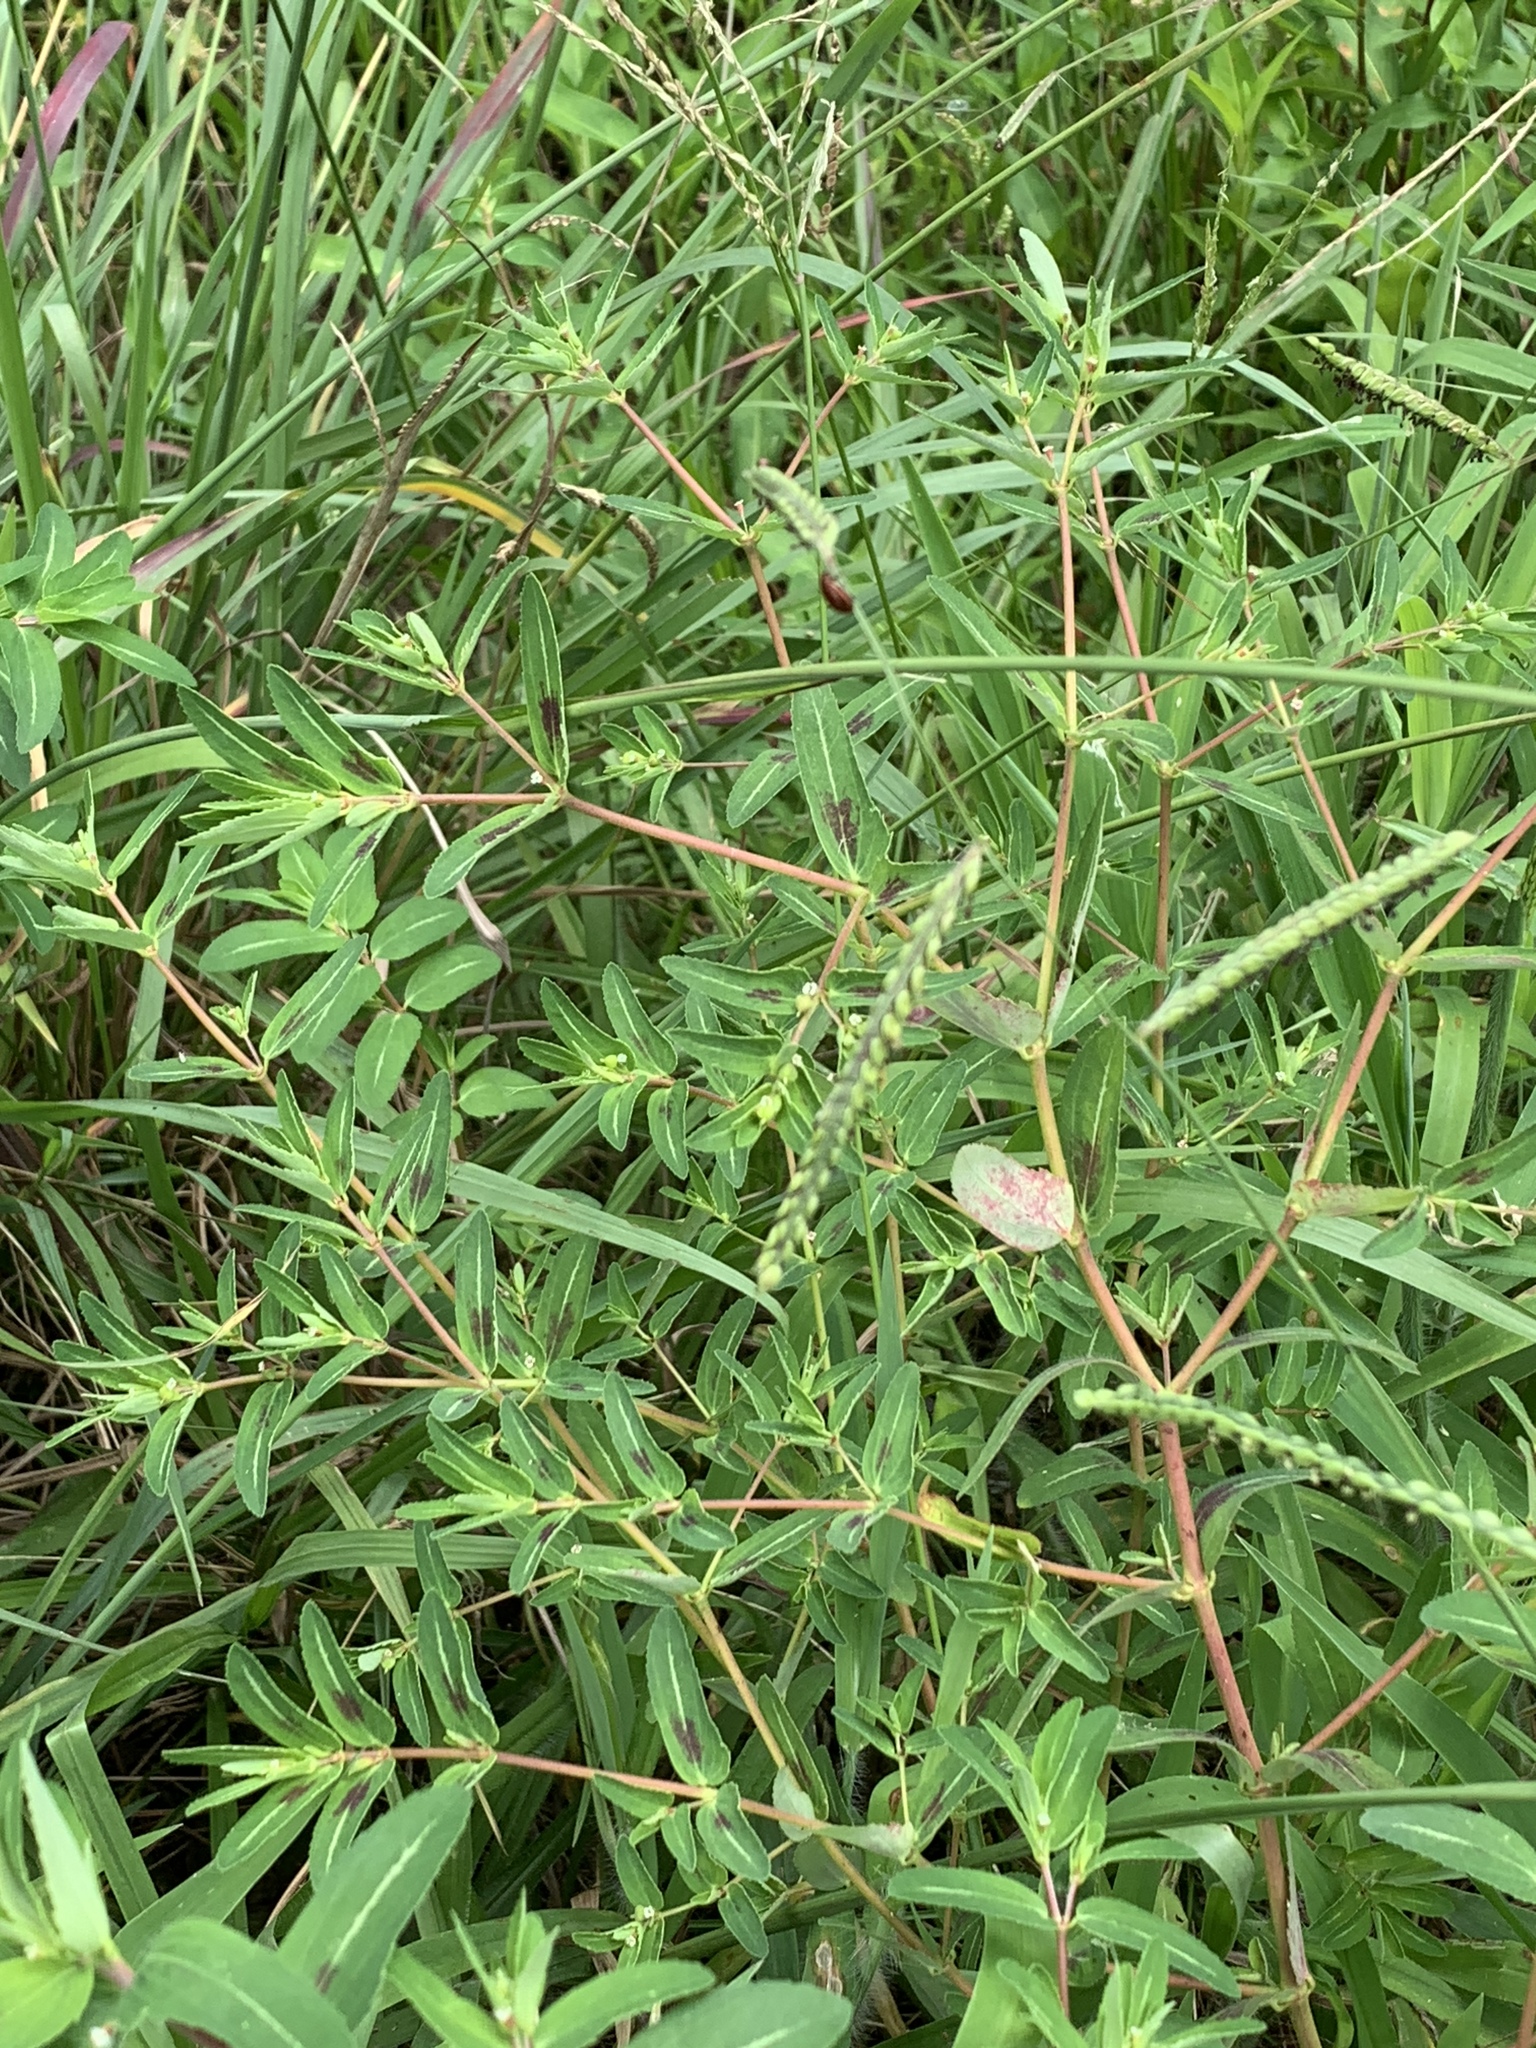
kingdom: Plantae
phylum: Tracheophyta
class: Magnoliopsida
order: Malpighiales
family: Euphorbiaceae
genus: Euphorbia
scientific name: Euphorbia nutans
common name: Eyebane
